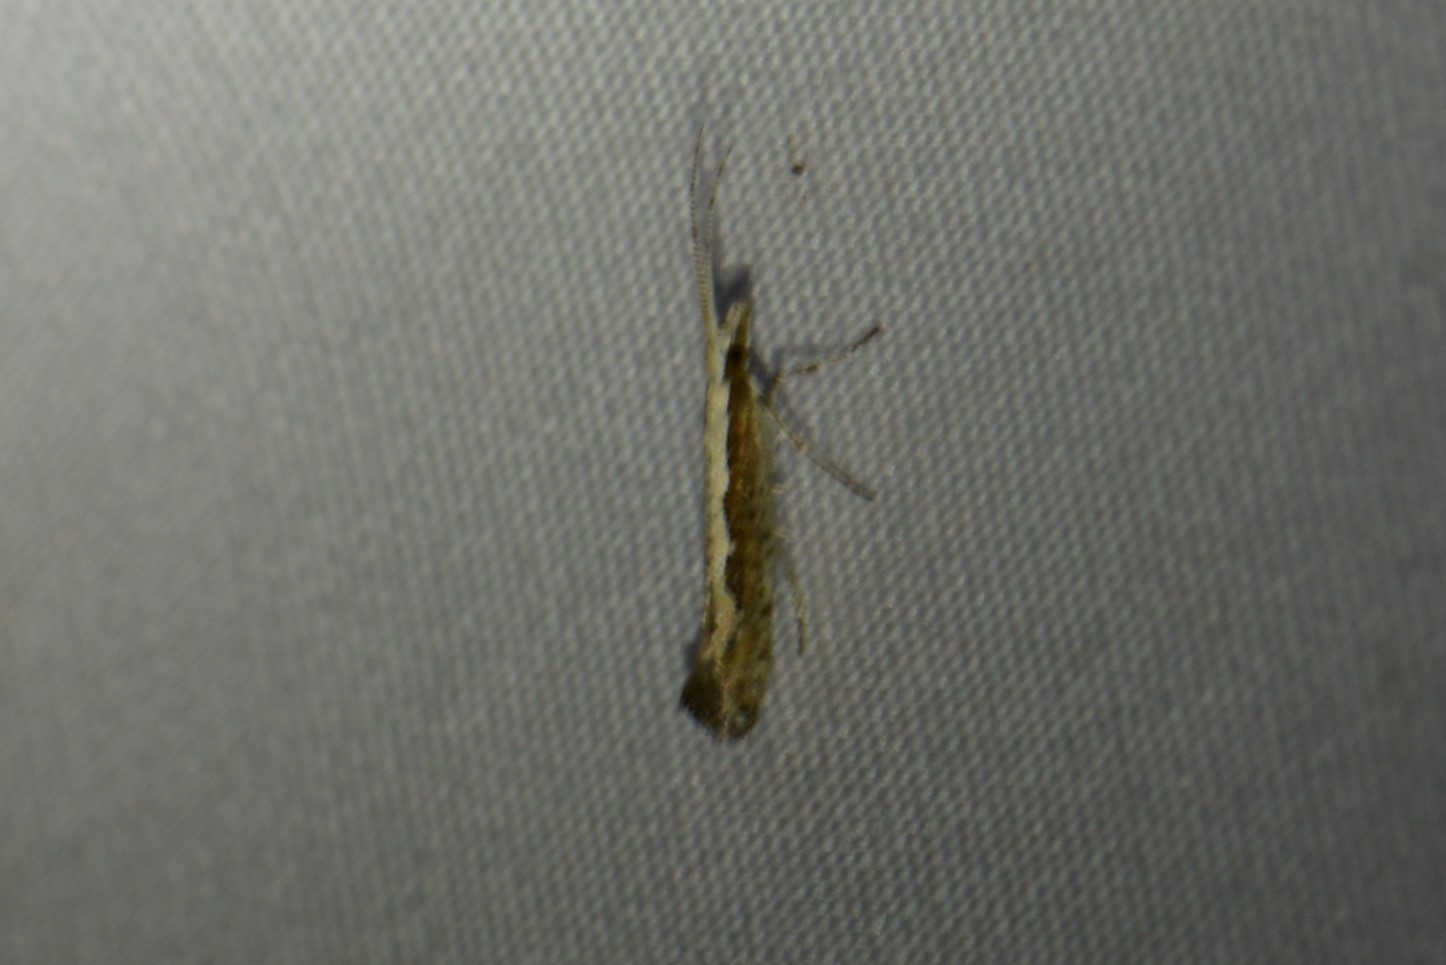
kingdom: Animalia
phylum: Arthropoda
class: Insecta
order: Lepidoptera
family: Plutellidae
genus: Plutella
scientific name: Plutella xylostella
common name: Diamond-back moth
